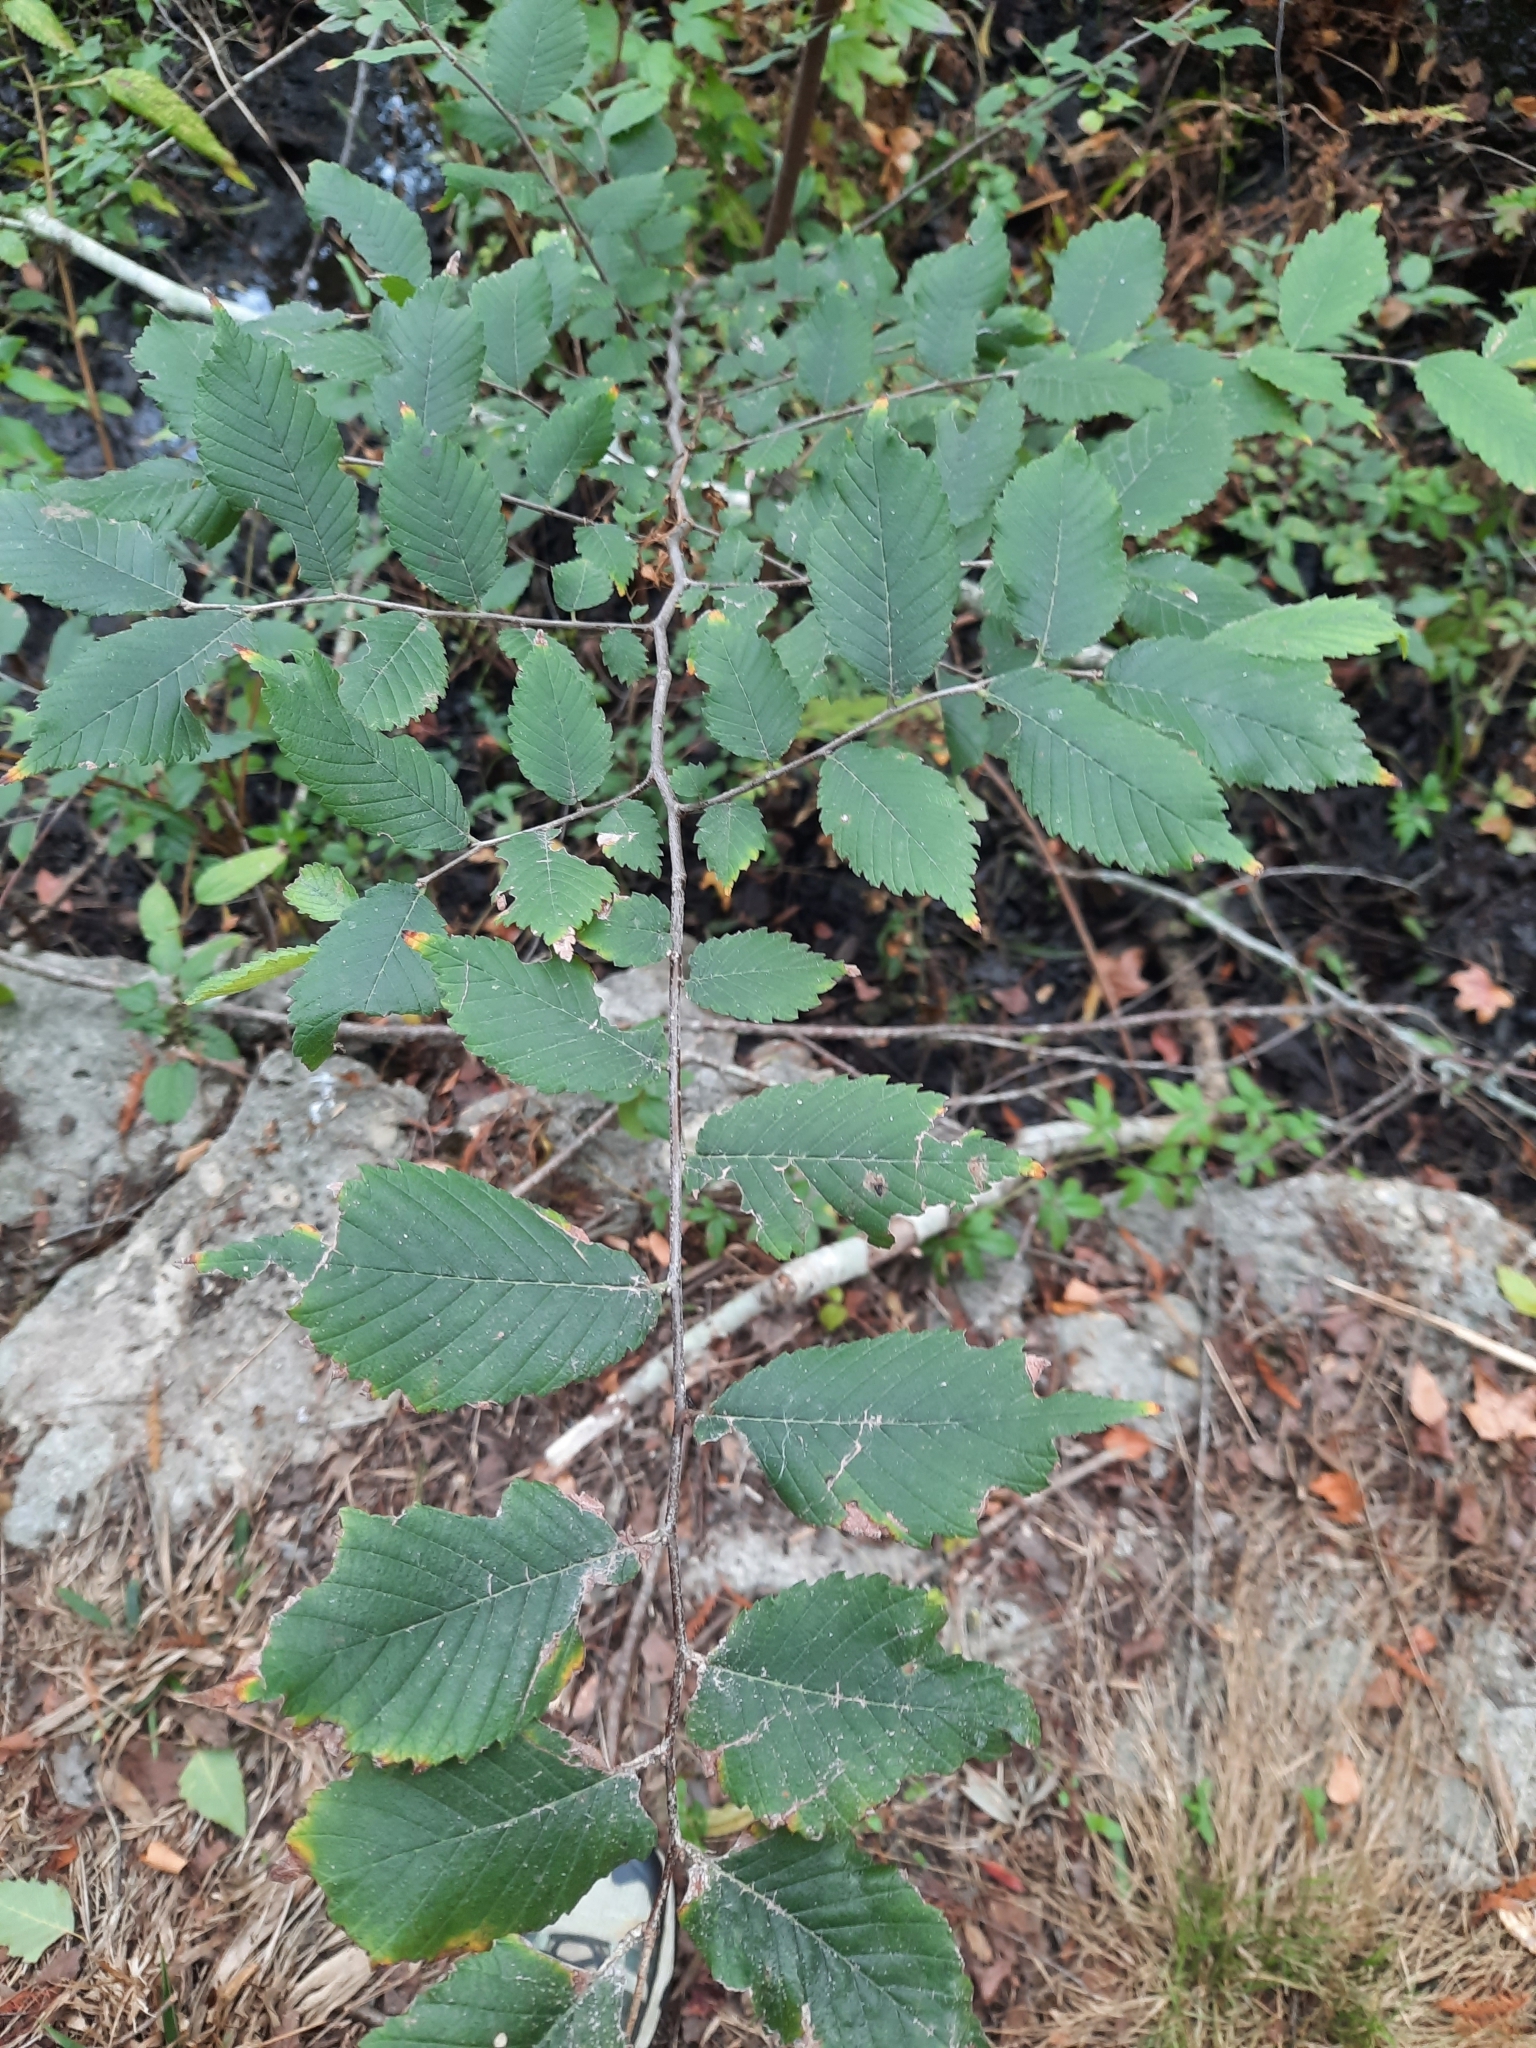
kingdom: Plantae
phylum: Tracheophyta
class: Magnoliopsida
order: Rosales
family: Ulmaceae
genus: Ulmus
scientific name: Ulmus americana
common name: American elm
